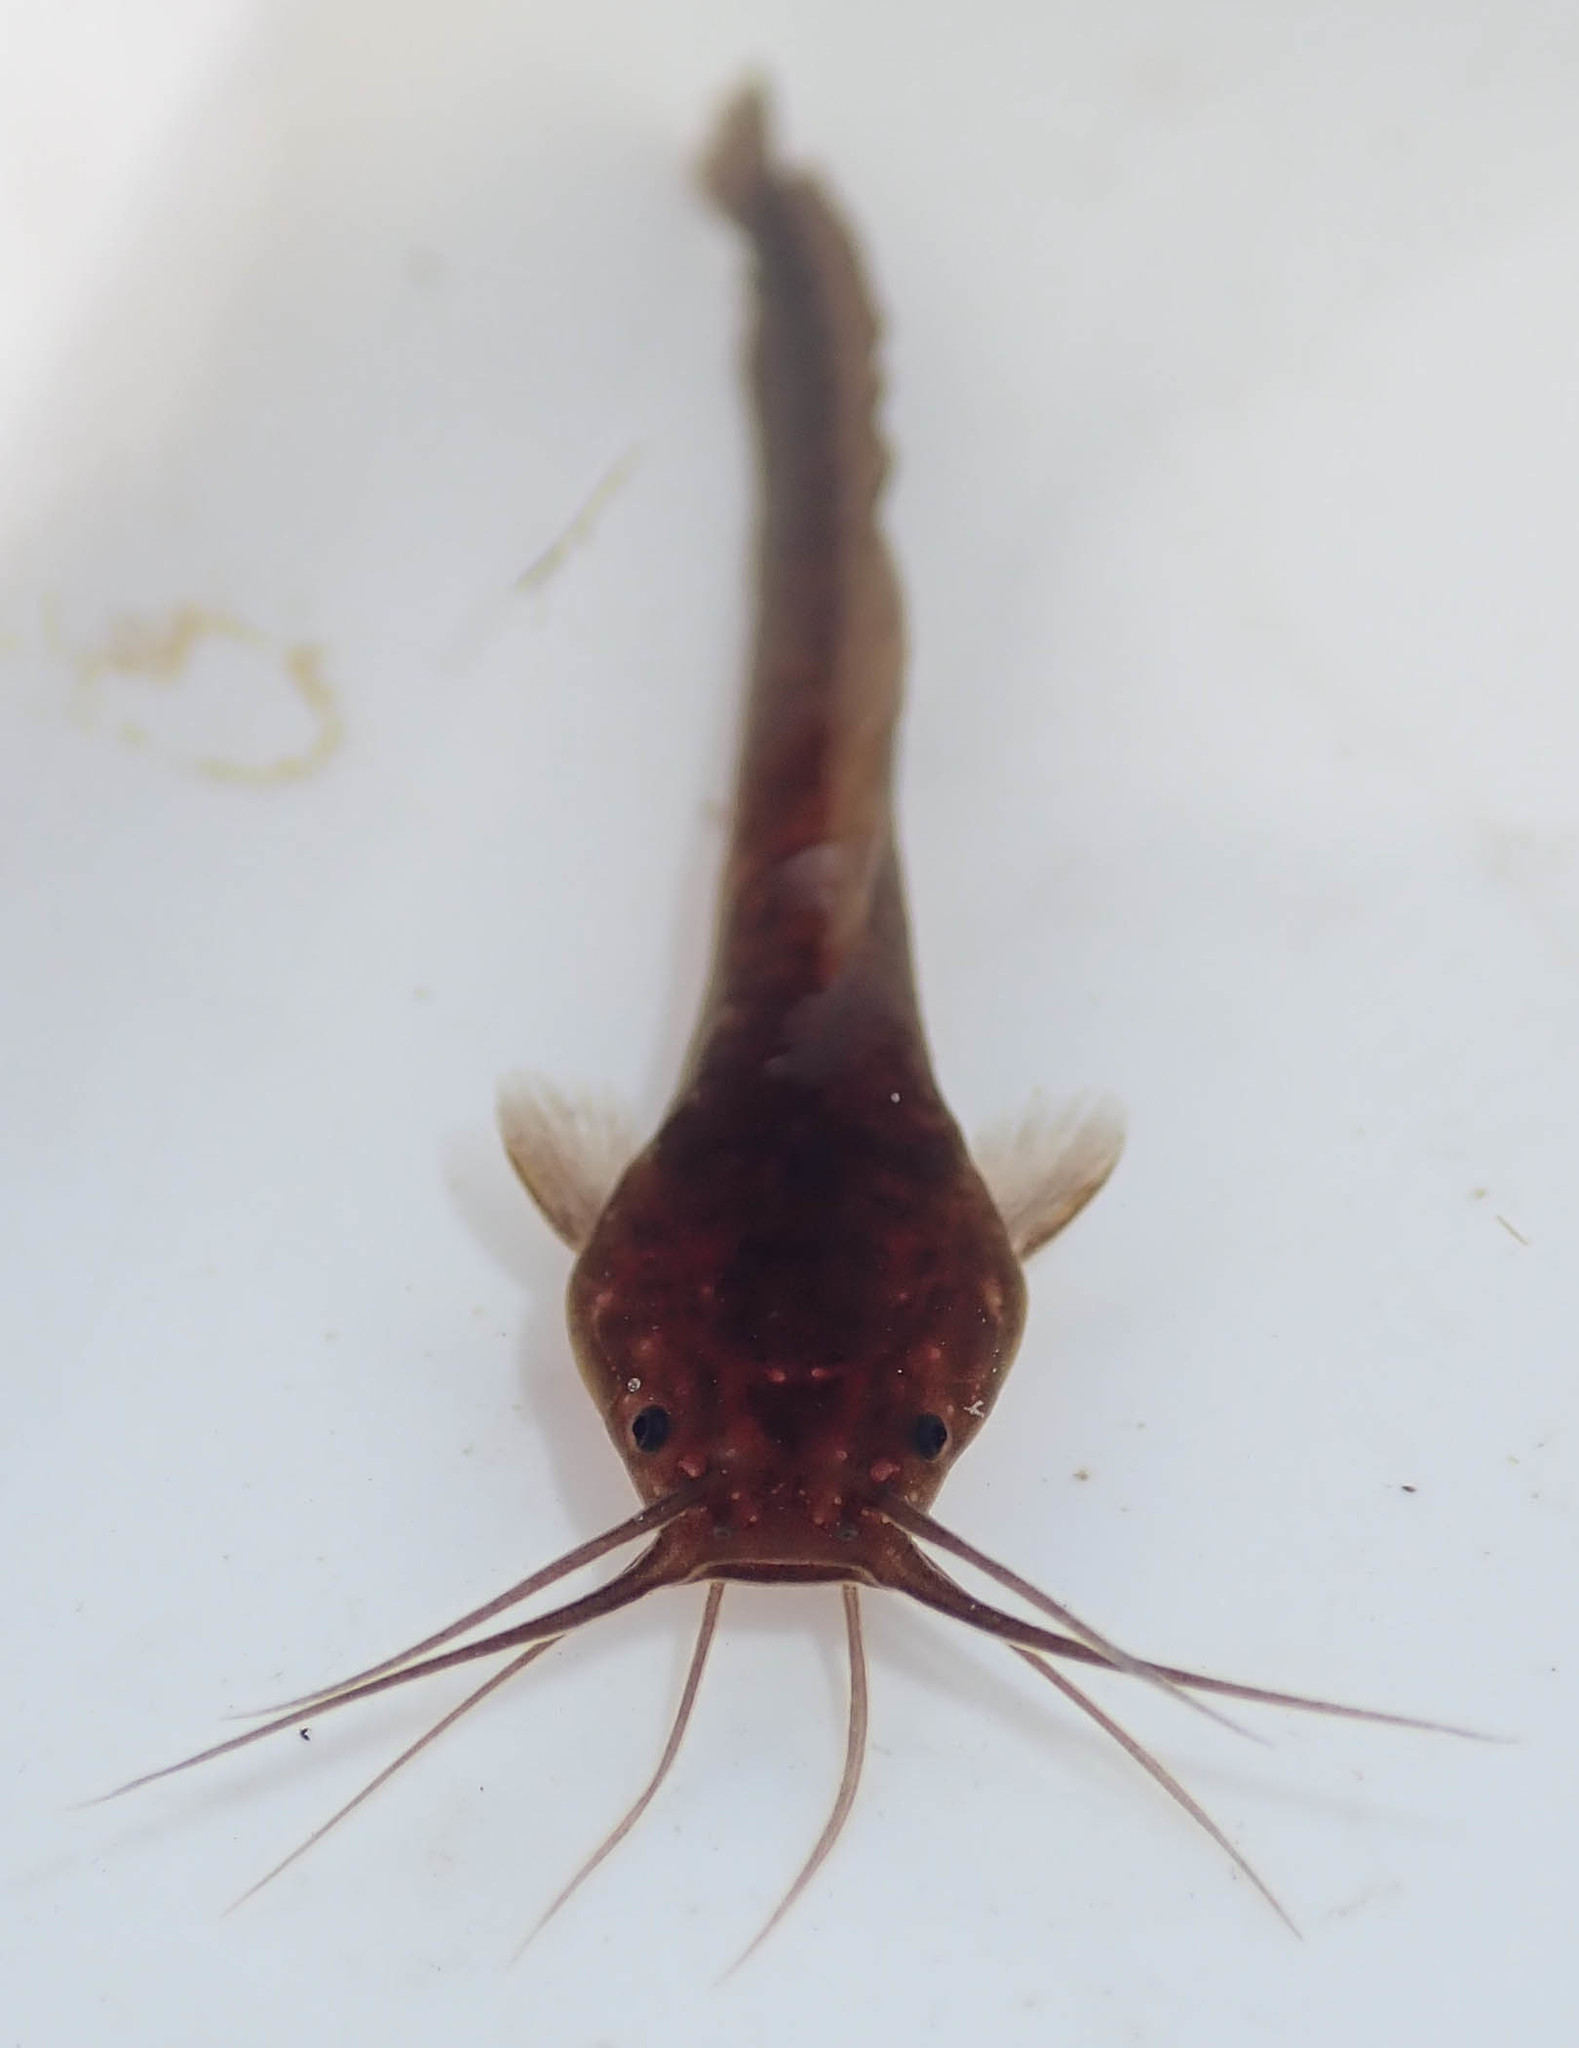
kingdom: Animalia
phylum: Chordata
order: Siluriformes
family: Clariidae
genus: Clarias
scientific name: Clarias theodorae
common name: Snake catfish
